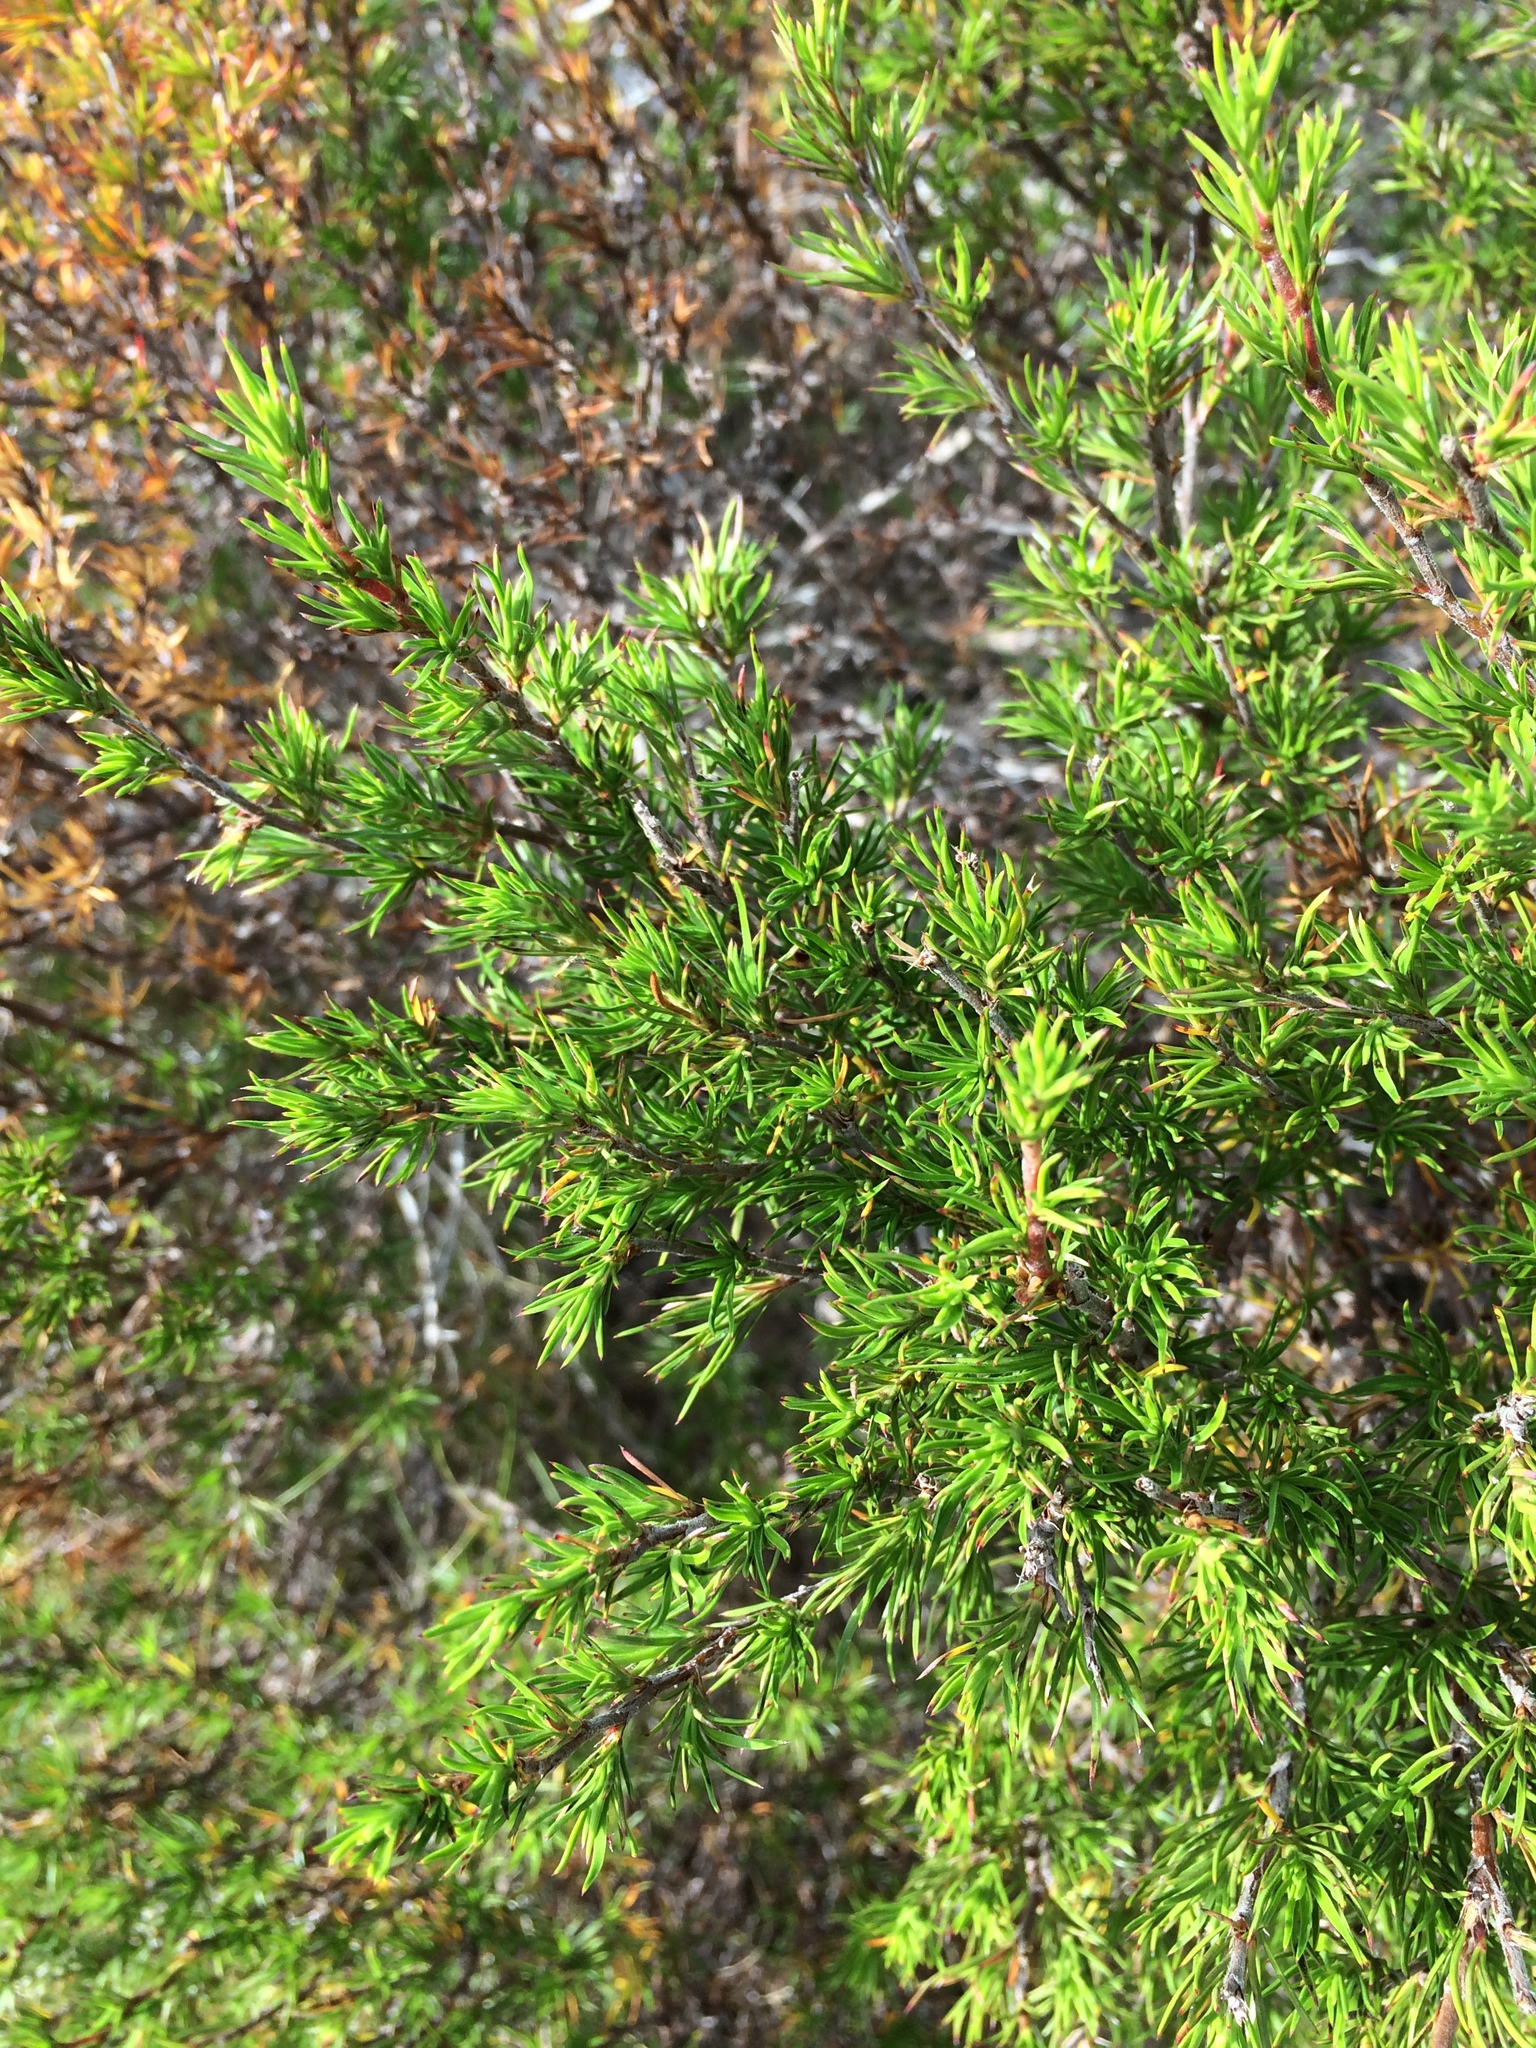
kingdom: Plantae
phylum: Tracheophyta
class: Magnoliopsida
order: Rosales
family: Rosaceae
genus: Cliffortia
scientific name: Cliffortia atrata
